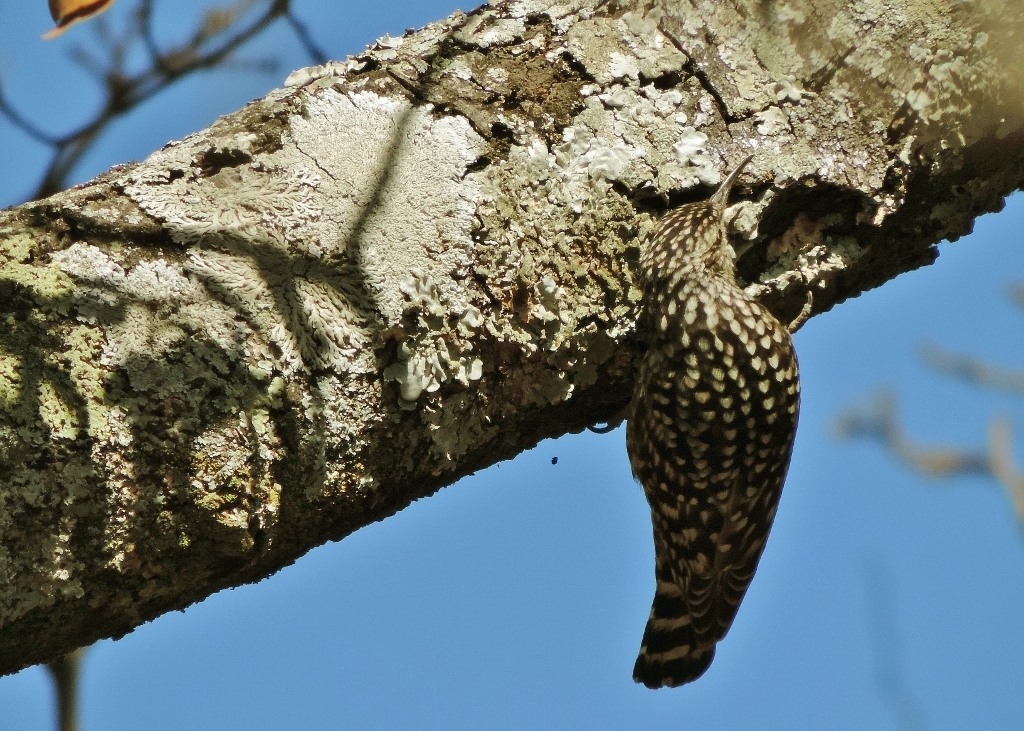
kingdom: Animalia
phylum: Chordata
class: Aves
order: Passeriformes
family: Certhiidae
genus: Salpornis
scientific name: Salpornis salvadori
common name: African spotted creeper
